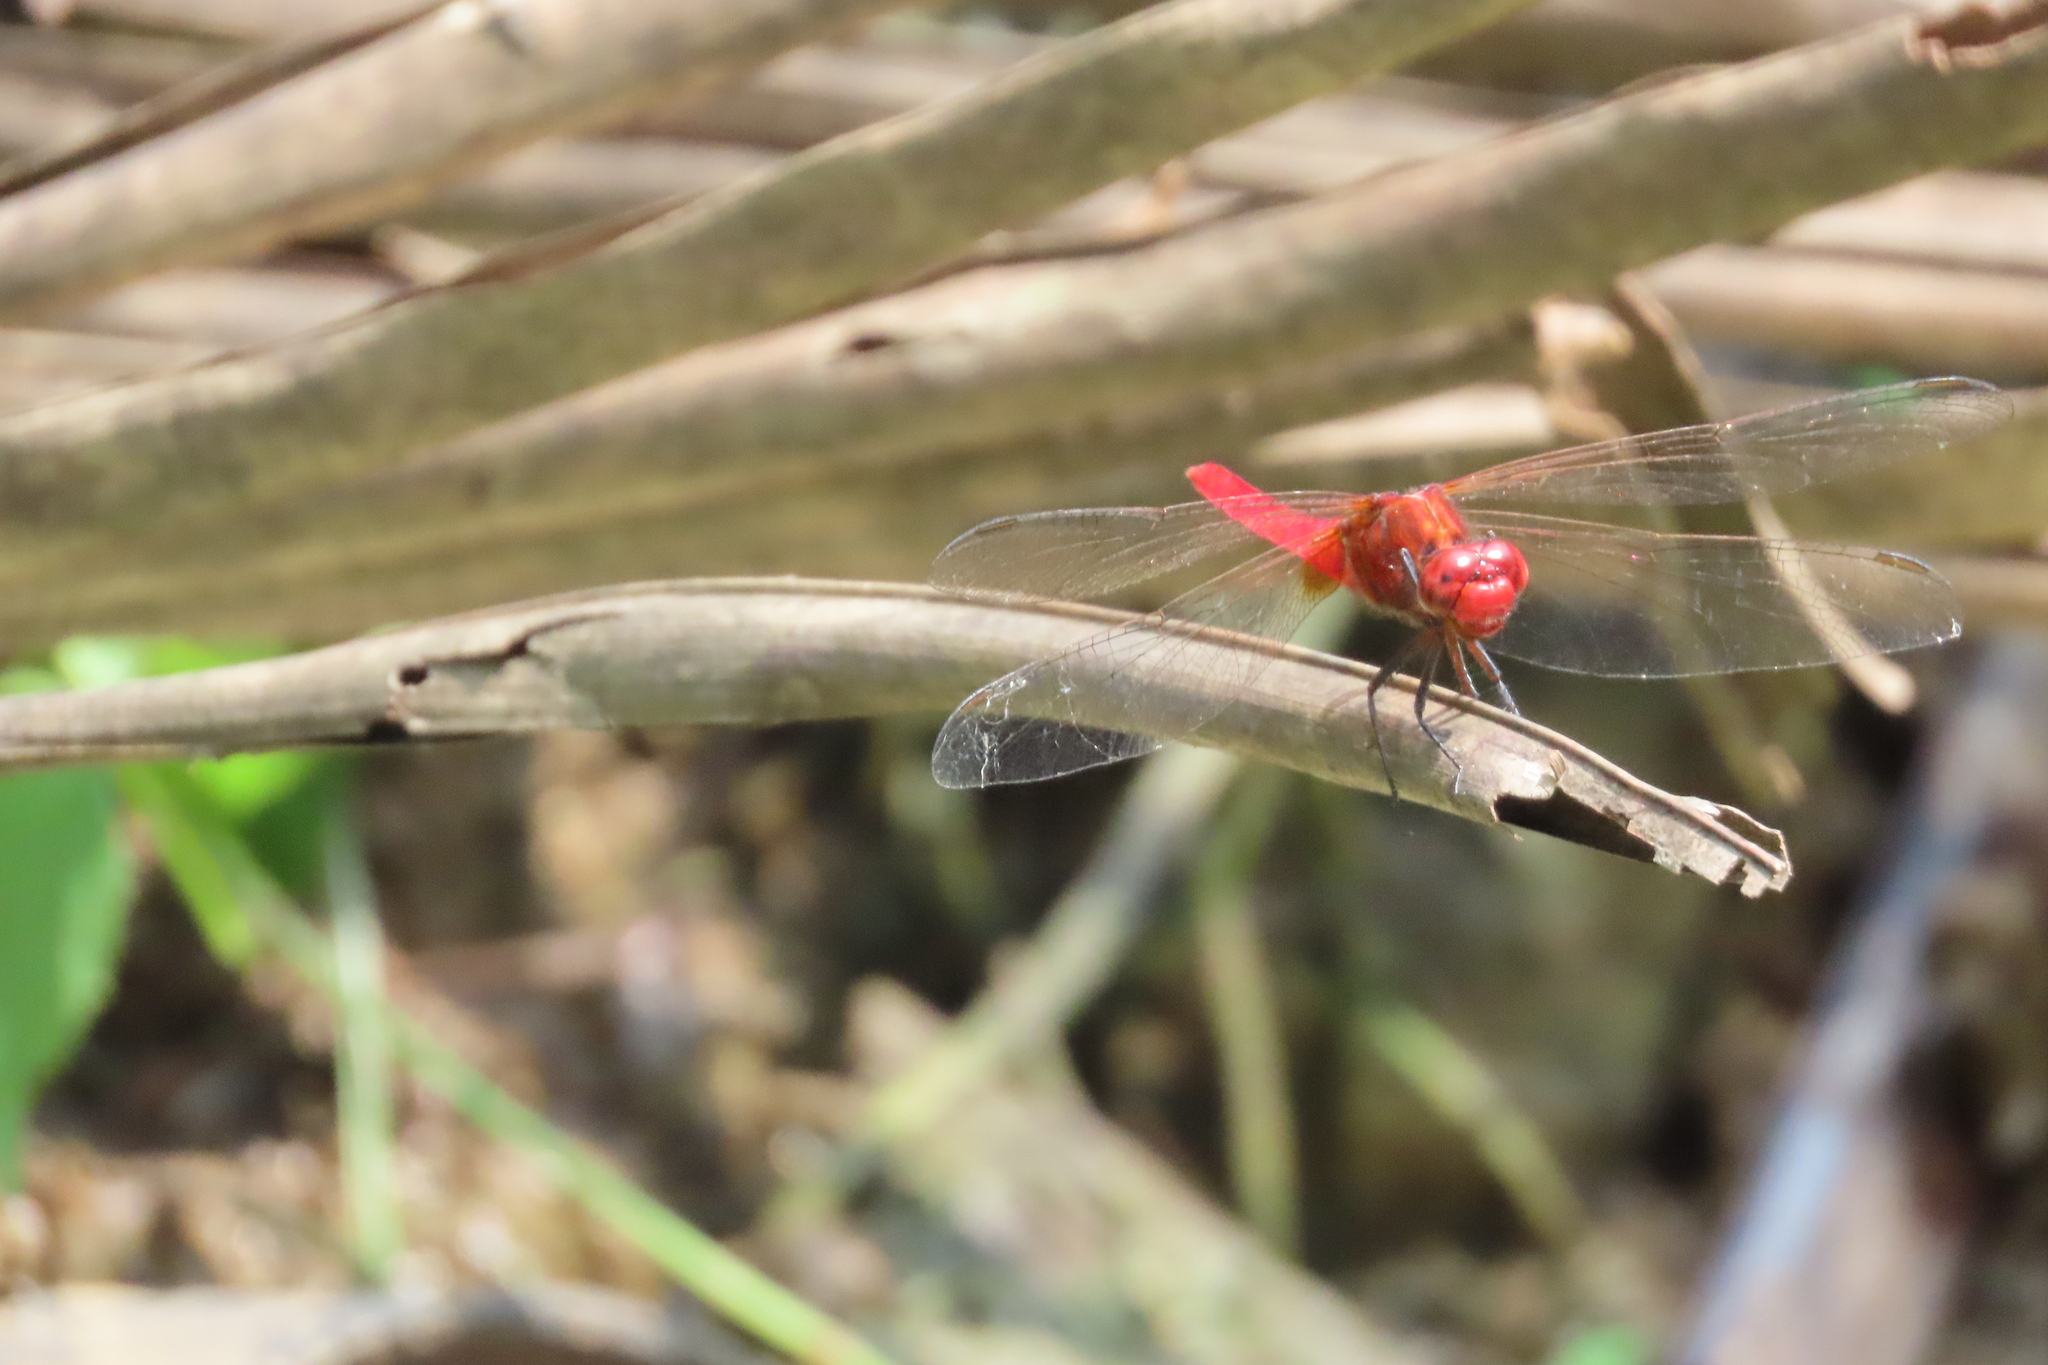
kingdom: Animalia
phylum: Arthropoda
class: Insecta
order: Odonata
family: Libellulidae
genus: Rhodothemis
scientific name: Rhodothemis rufa
